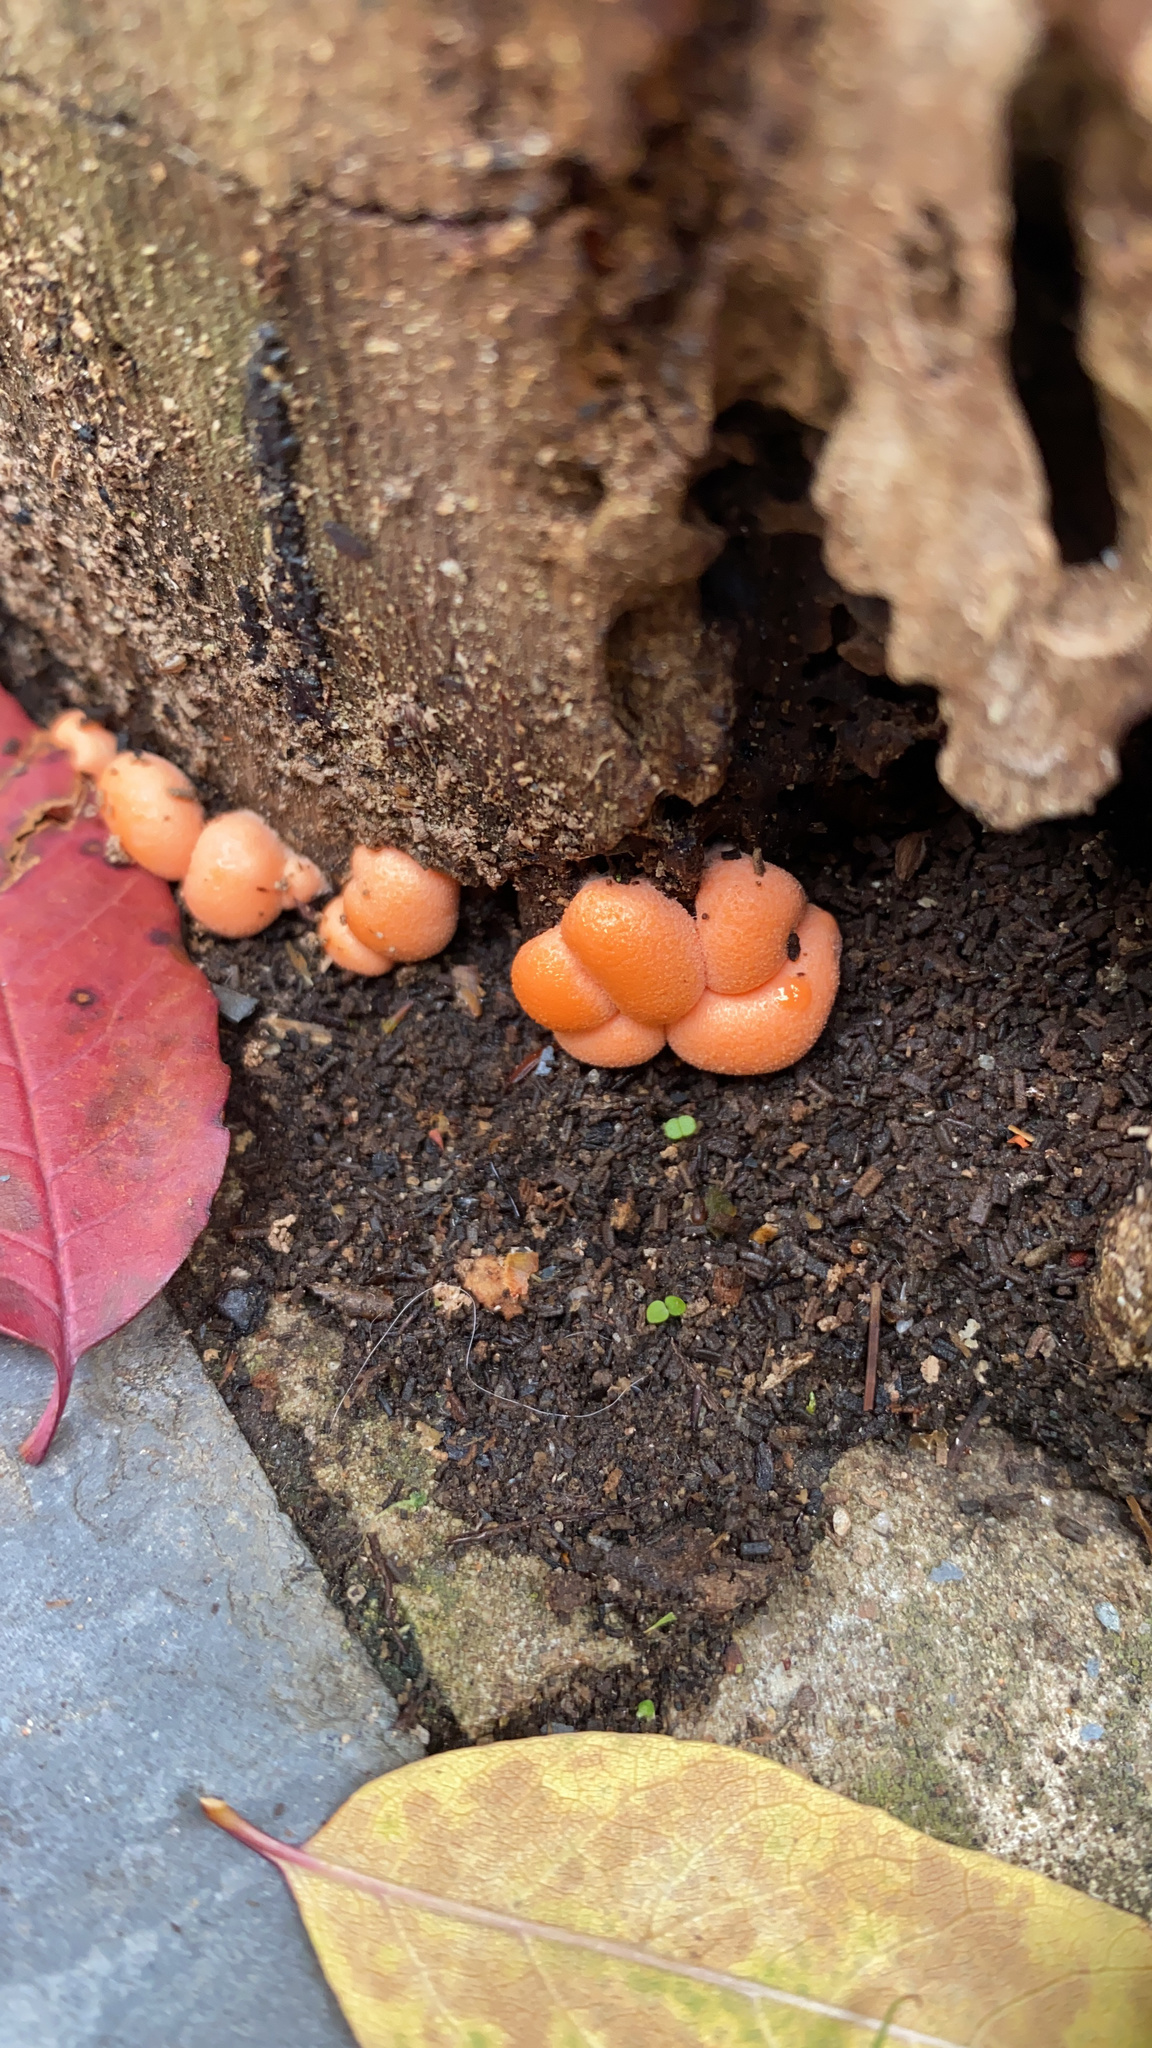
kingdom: Protozoa
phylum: Mycetozoa
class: Myxomycetes
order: Cribrariales
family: Tubiferaceae
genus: Lycogala
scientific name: Lycogala epidendrum
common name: Wolf's milk
